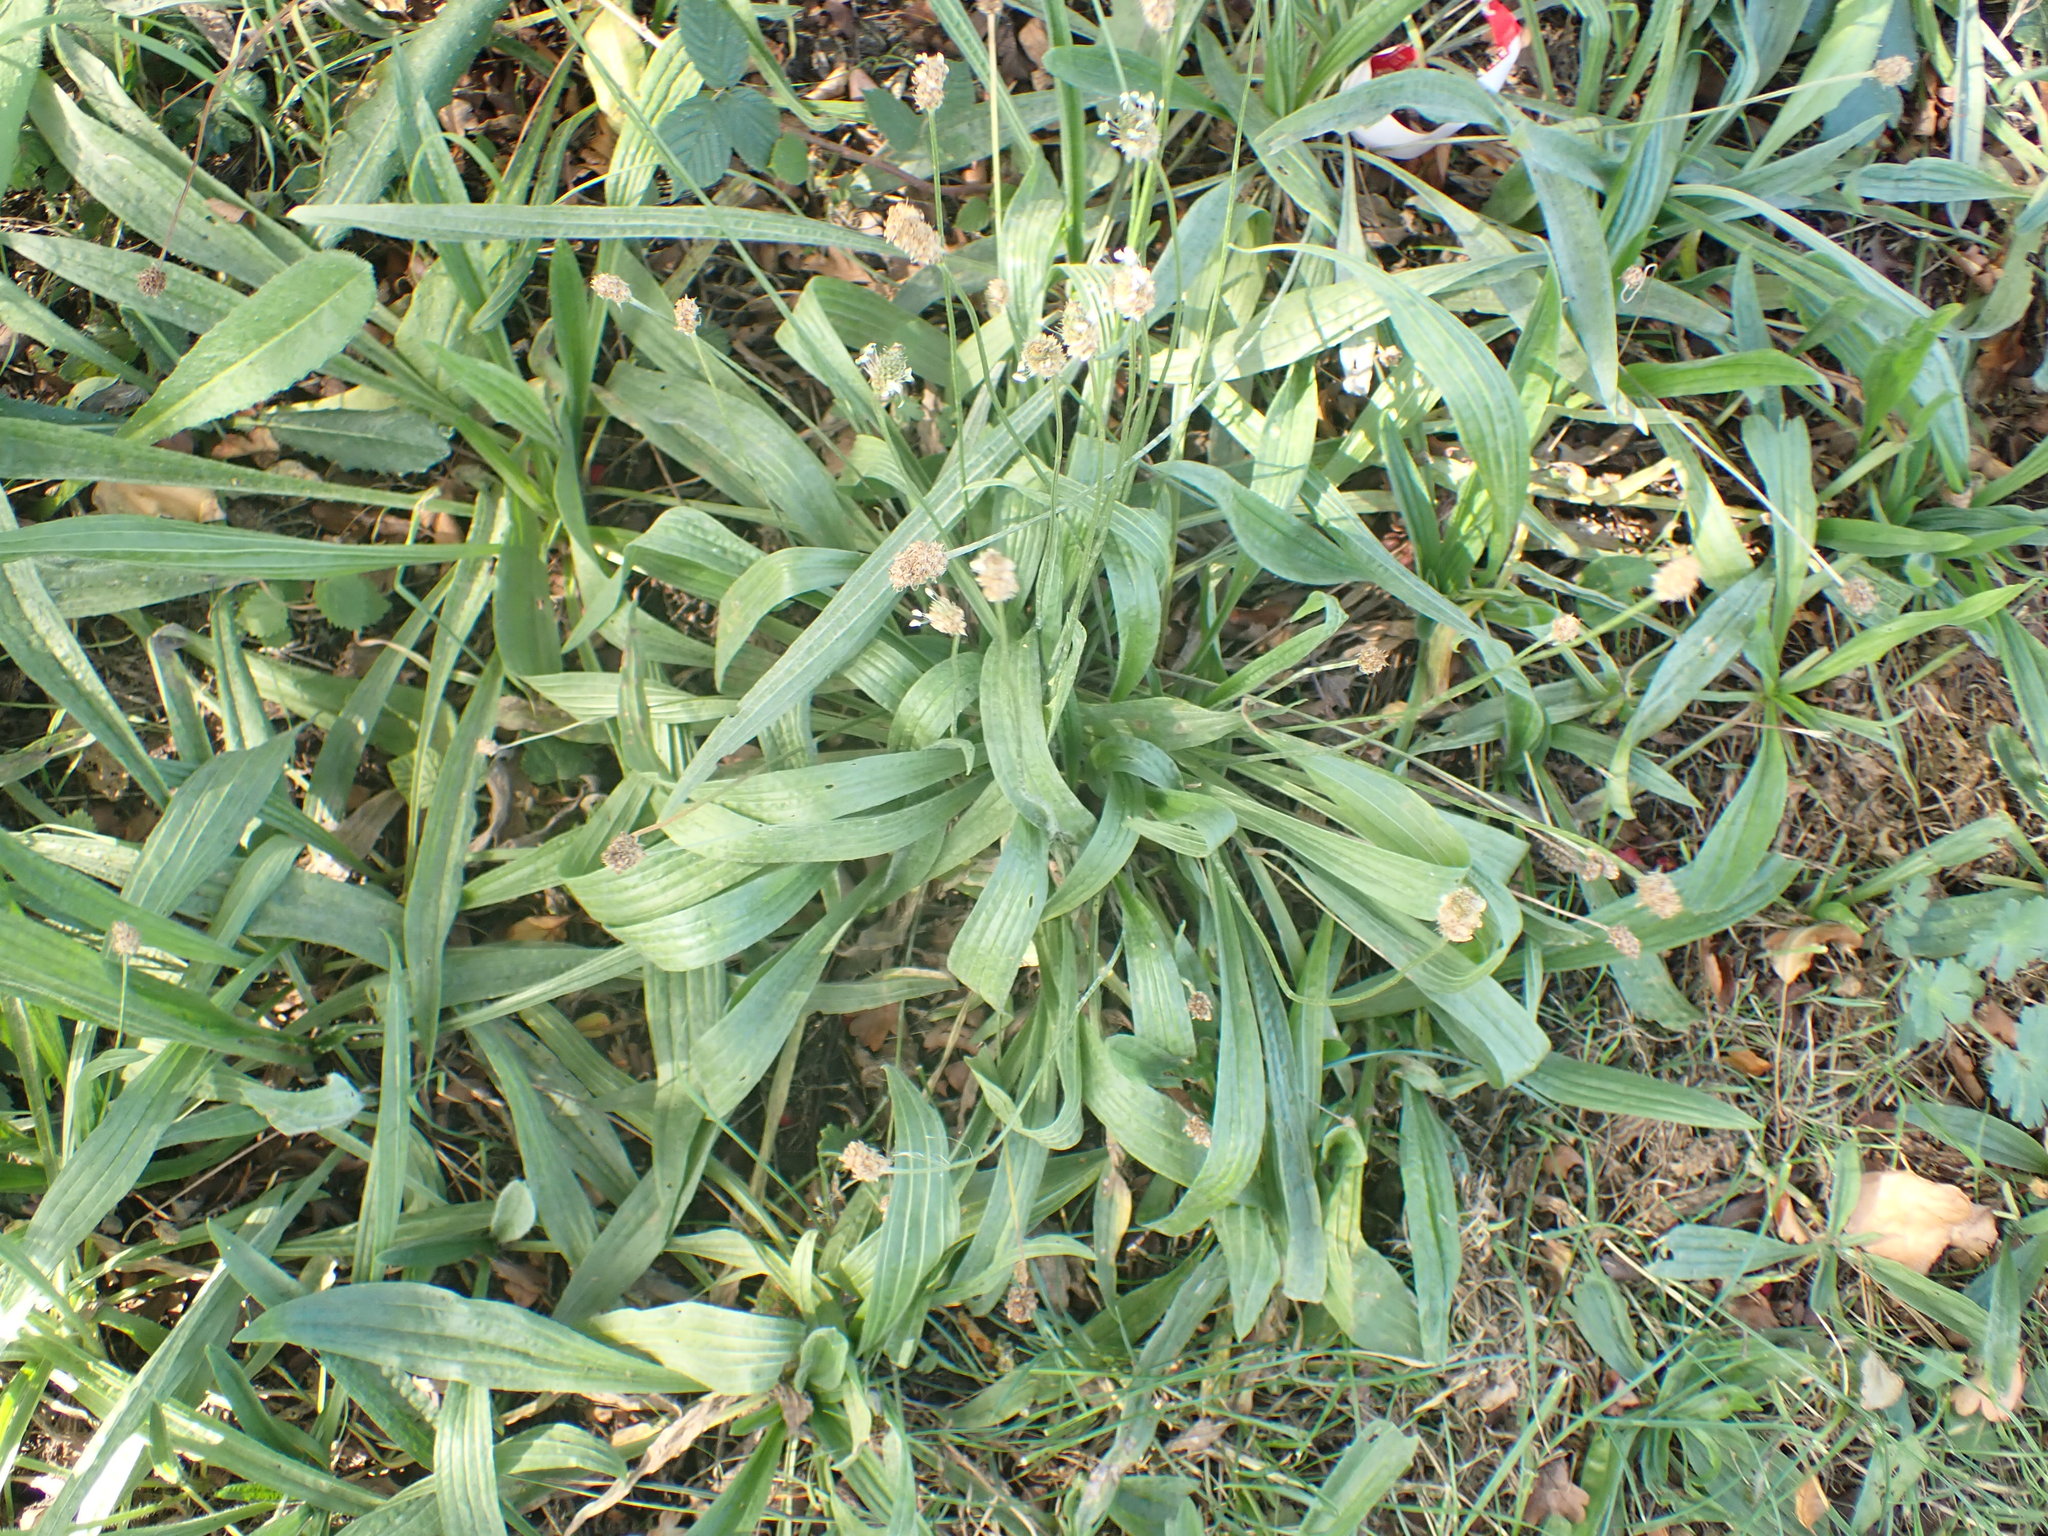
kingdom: Plantae
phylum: Tracheophyta
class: Magnoliopsida
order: Lamiales
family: Plantaginaceae
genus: Plantago
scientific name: Plantago lanceolata
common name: Ribwort plantain
